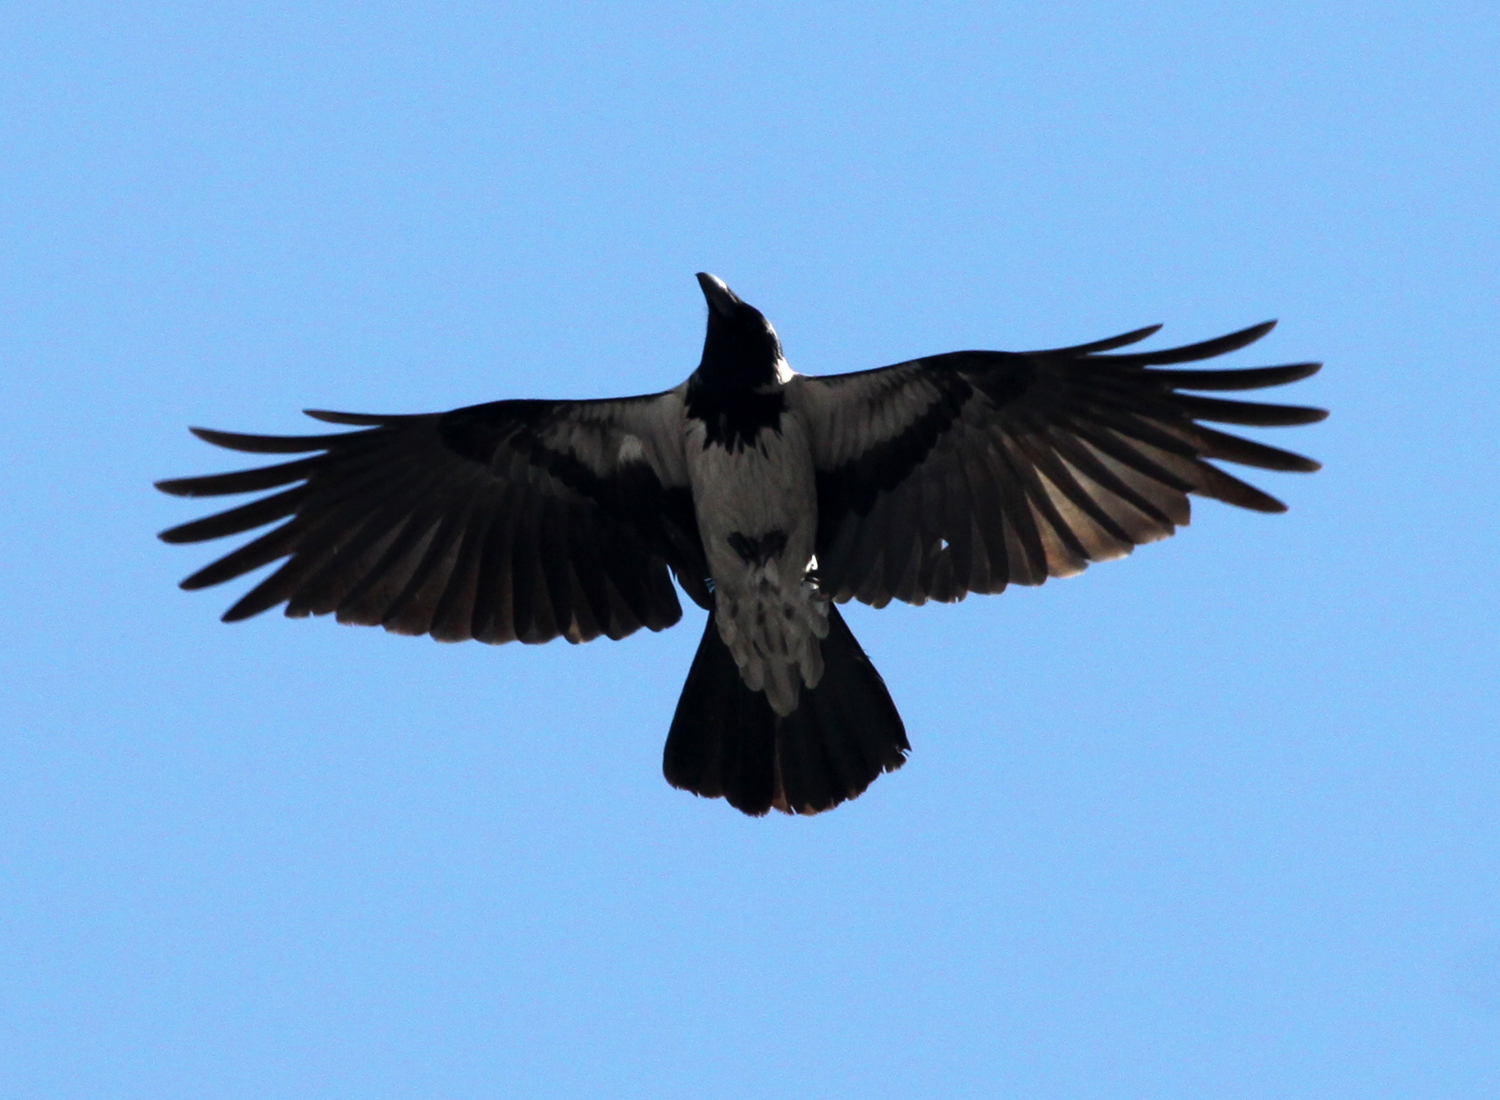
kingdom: Animalia
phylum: Chordata
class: Aves
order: Passeriformes
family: Corvidae
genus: Corvus
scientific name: Corvus cornix
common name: Hooded crow
